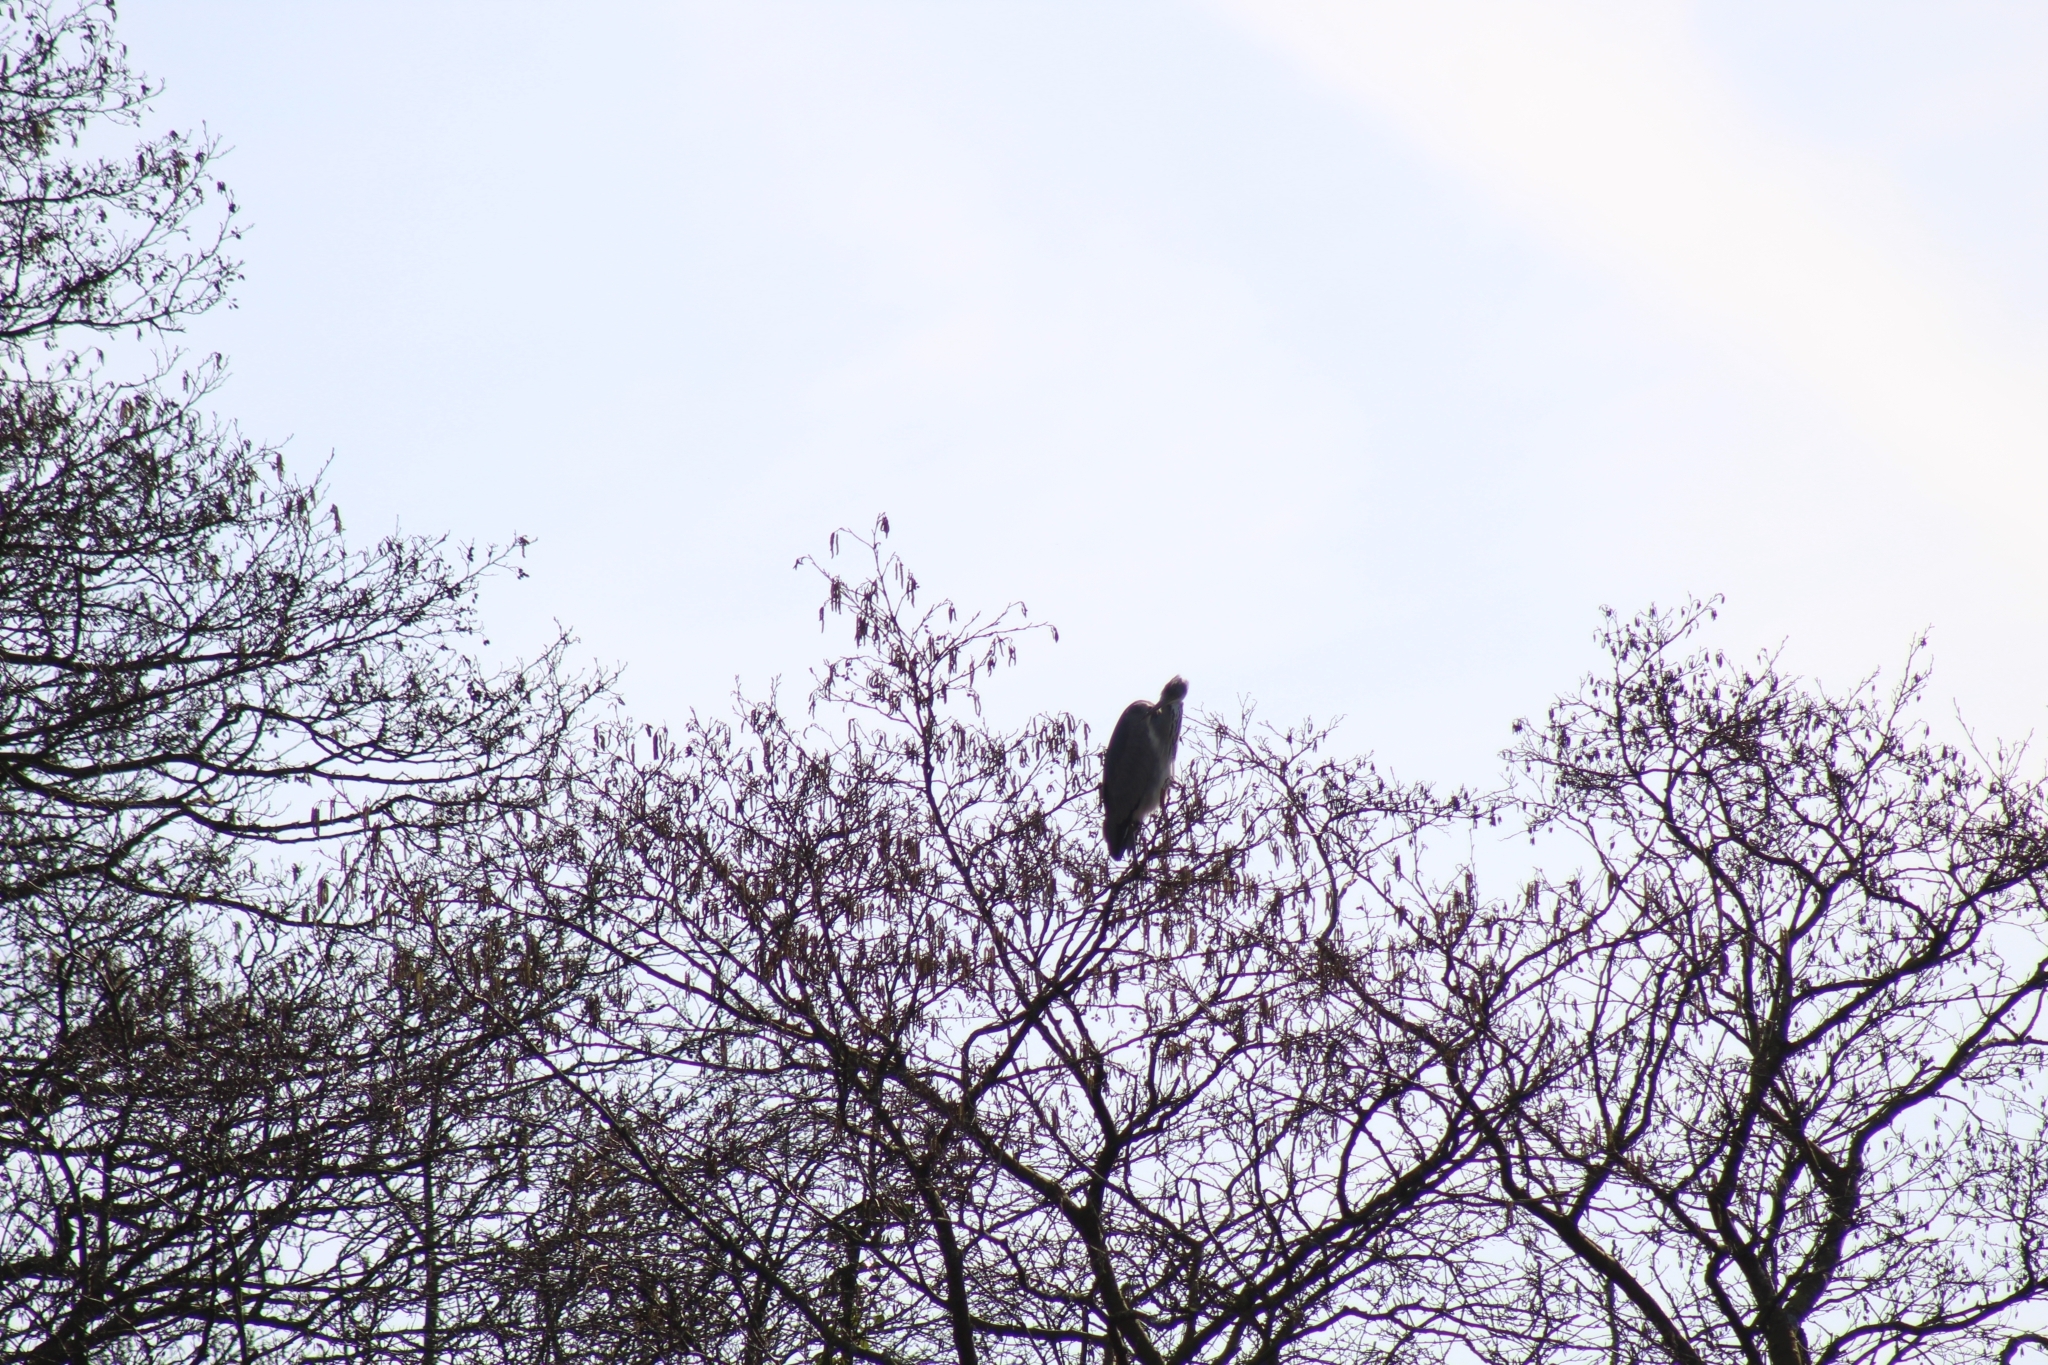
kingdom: Animalia
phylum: Chordata
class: Aves
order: Pelecaniformes
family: Ardeidae
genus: Ardea
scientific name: Ardea cinerea
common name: Grey heron
